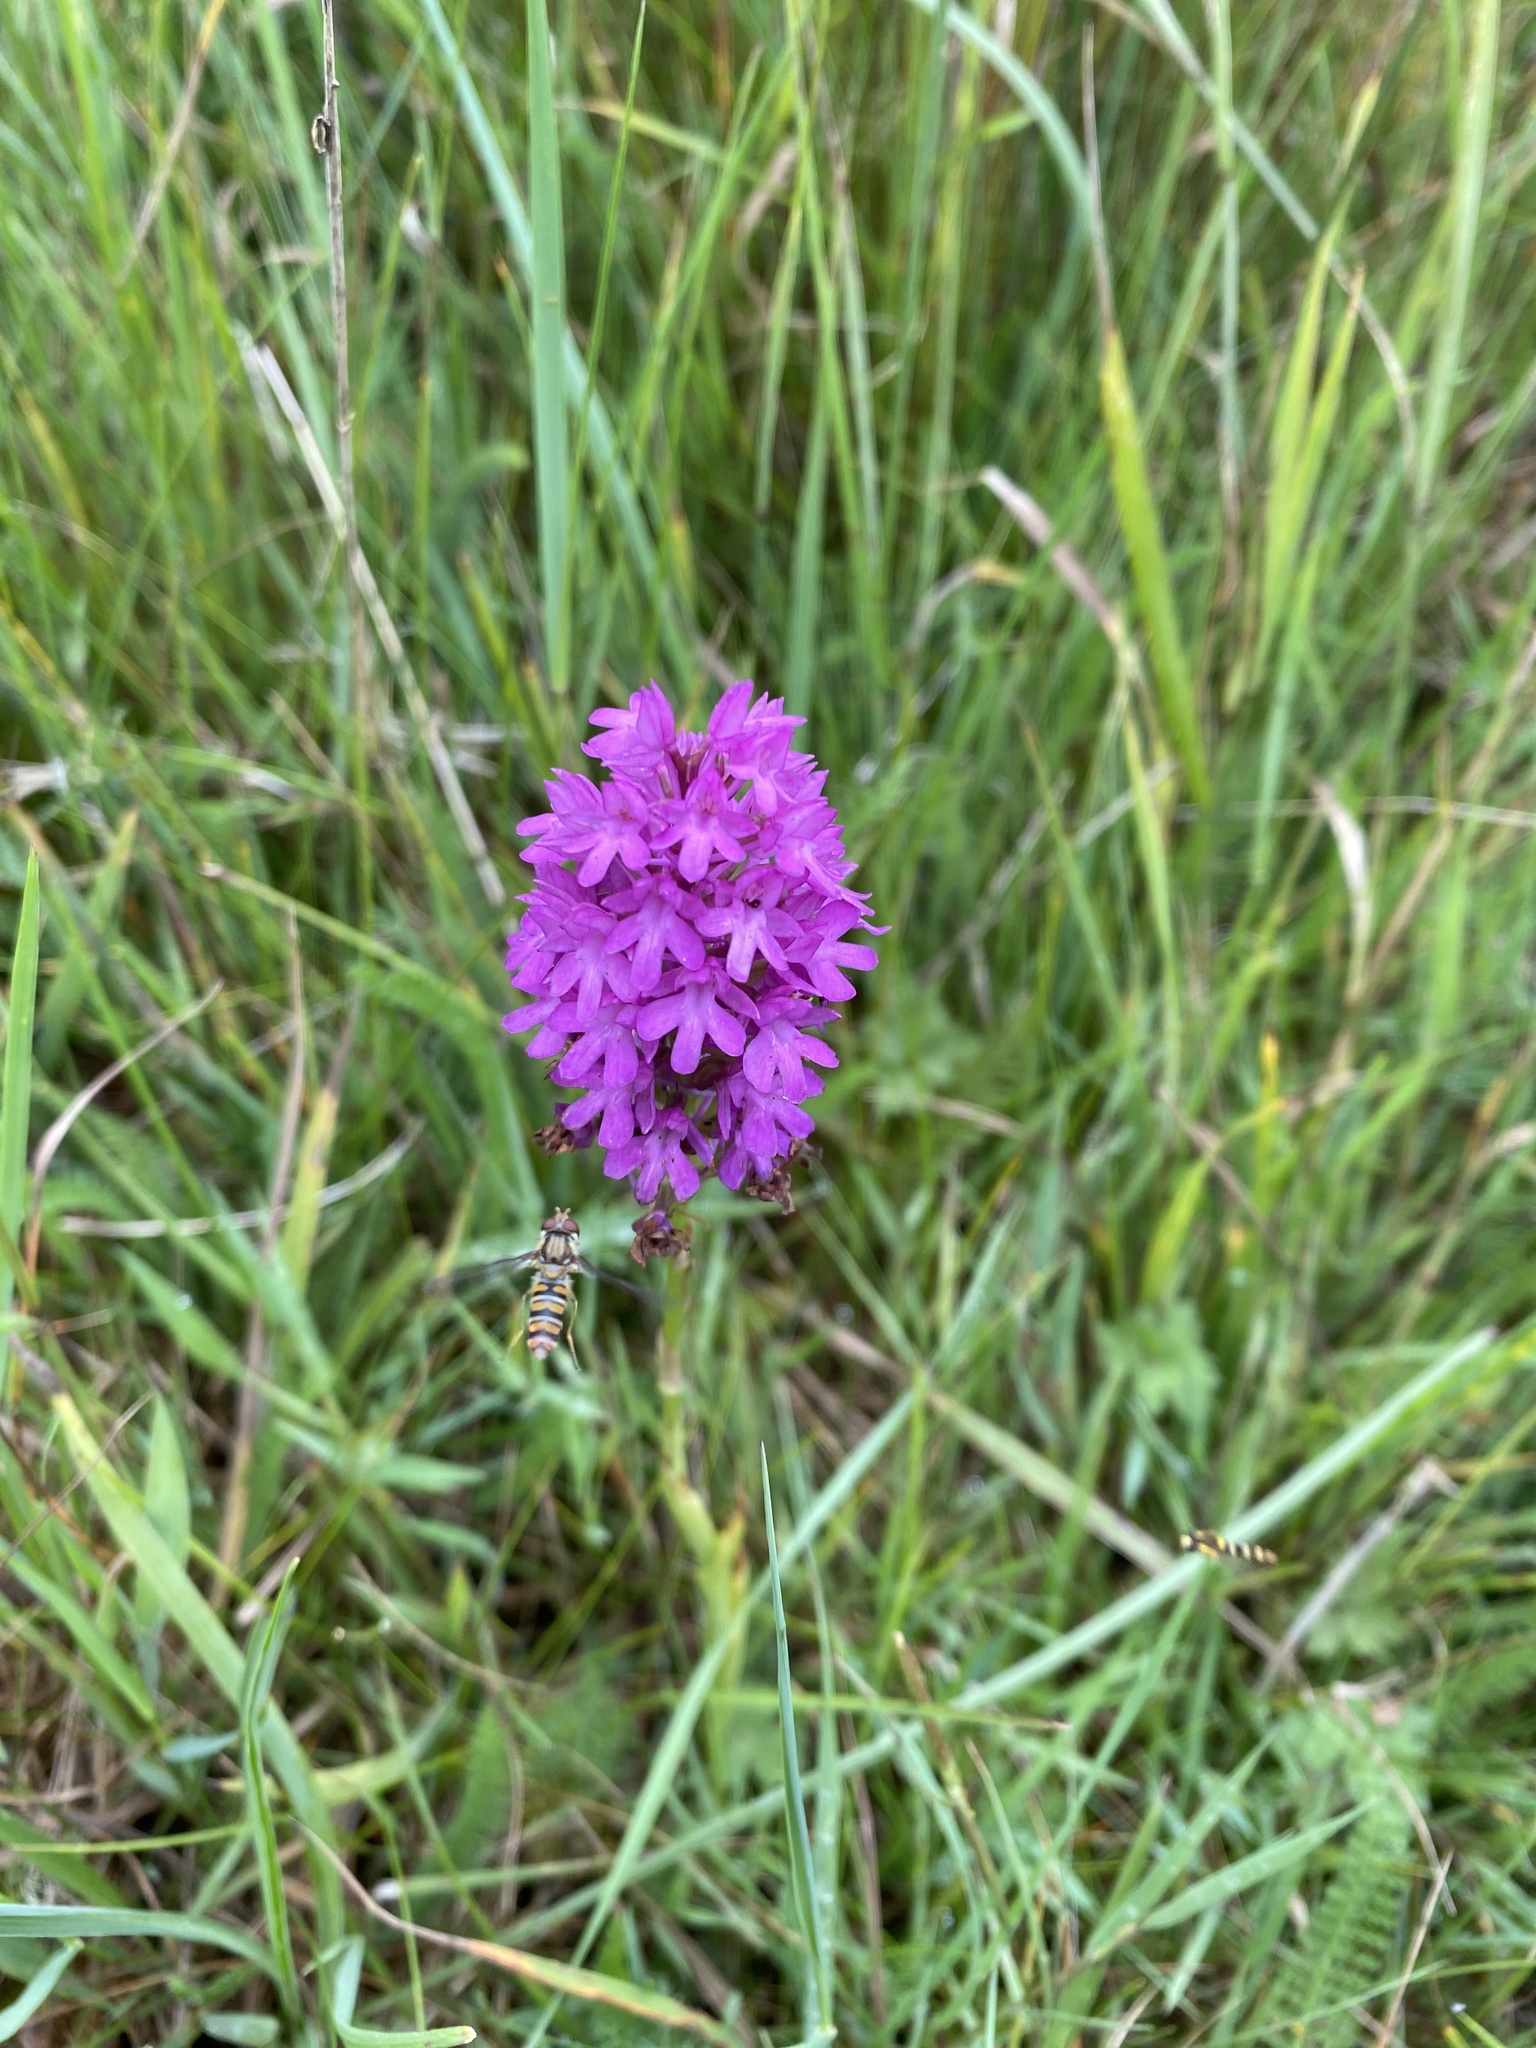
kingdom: Plantae
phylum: Tracheophyta
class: Liliopsida
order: Asparagales
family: Orchidaceae
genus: Anacamptis
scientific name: Anacamptis pyramidalis
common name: Pyramidal orchid
